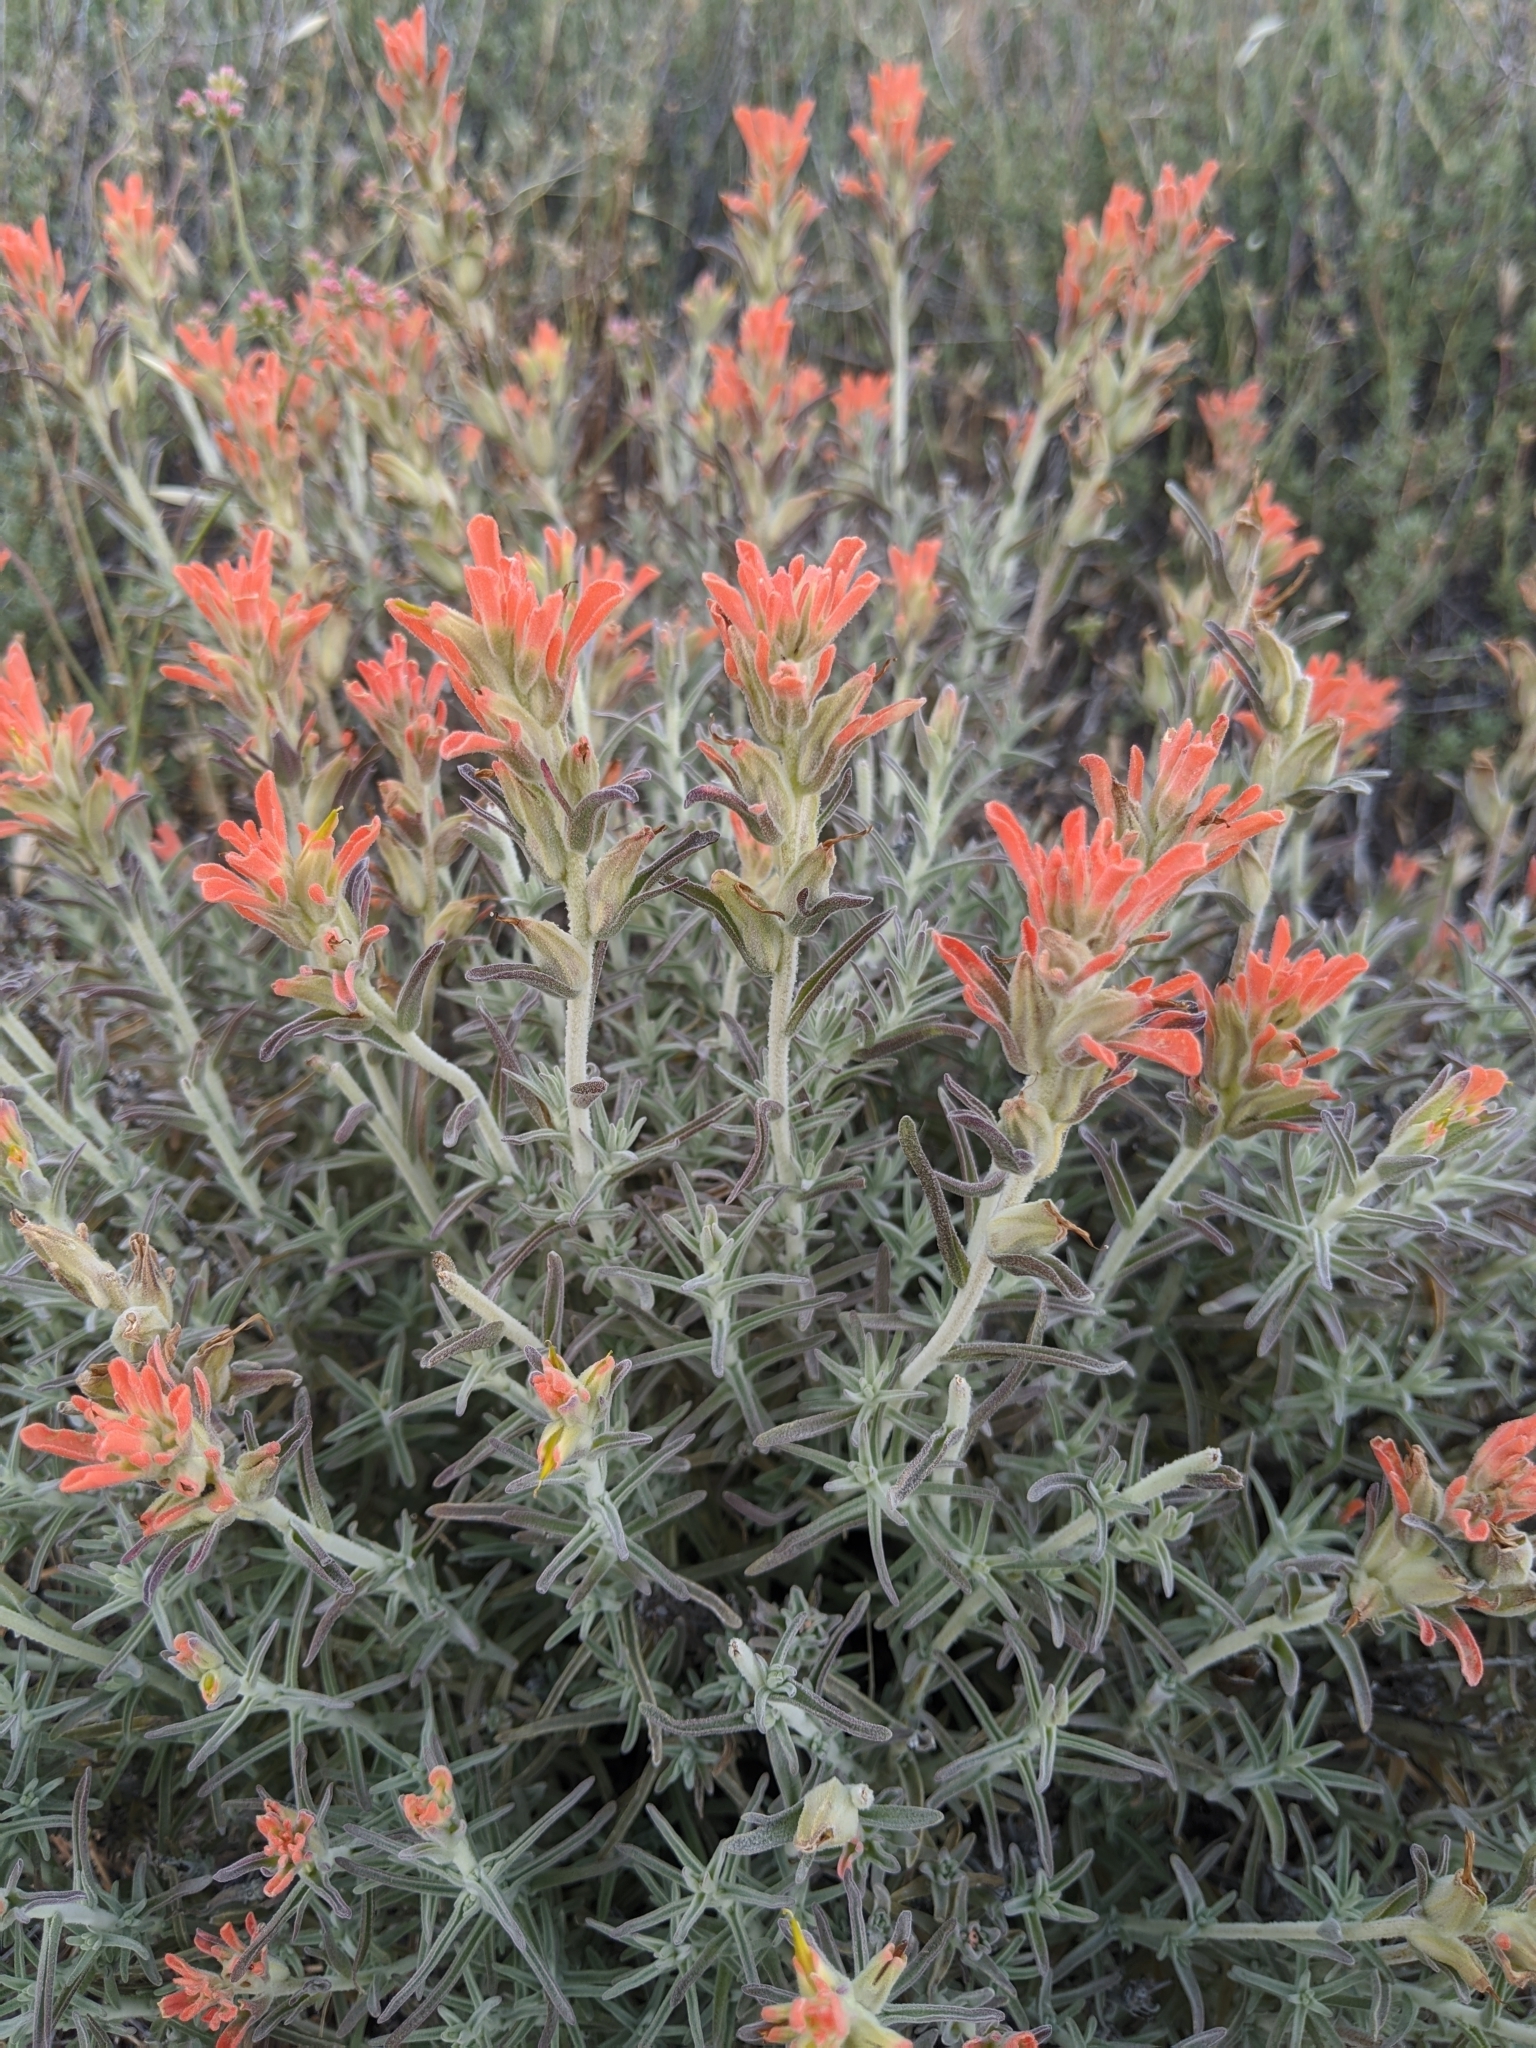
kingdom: Plantae
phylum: Tracheophyta
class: Magnoliopsida
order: Lamiales
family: Orobanchaceae
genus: Castilleja
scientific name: Castilleja foliolosa
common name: Woolly indian paintbrush
